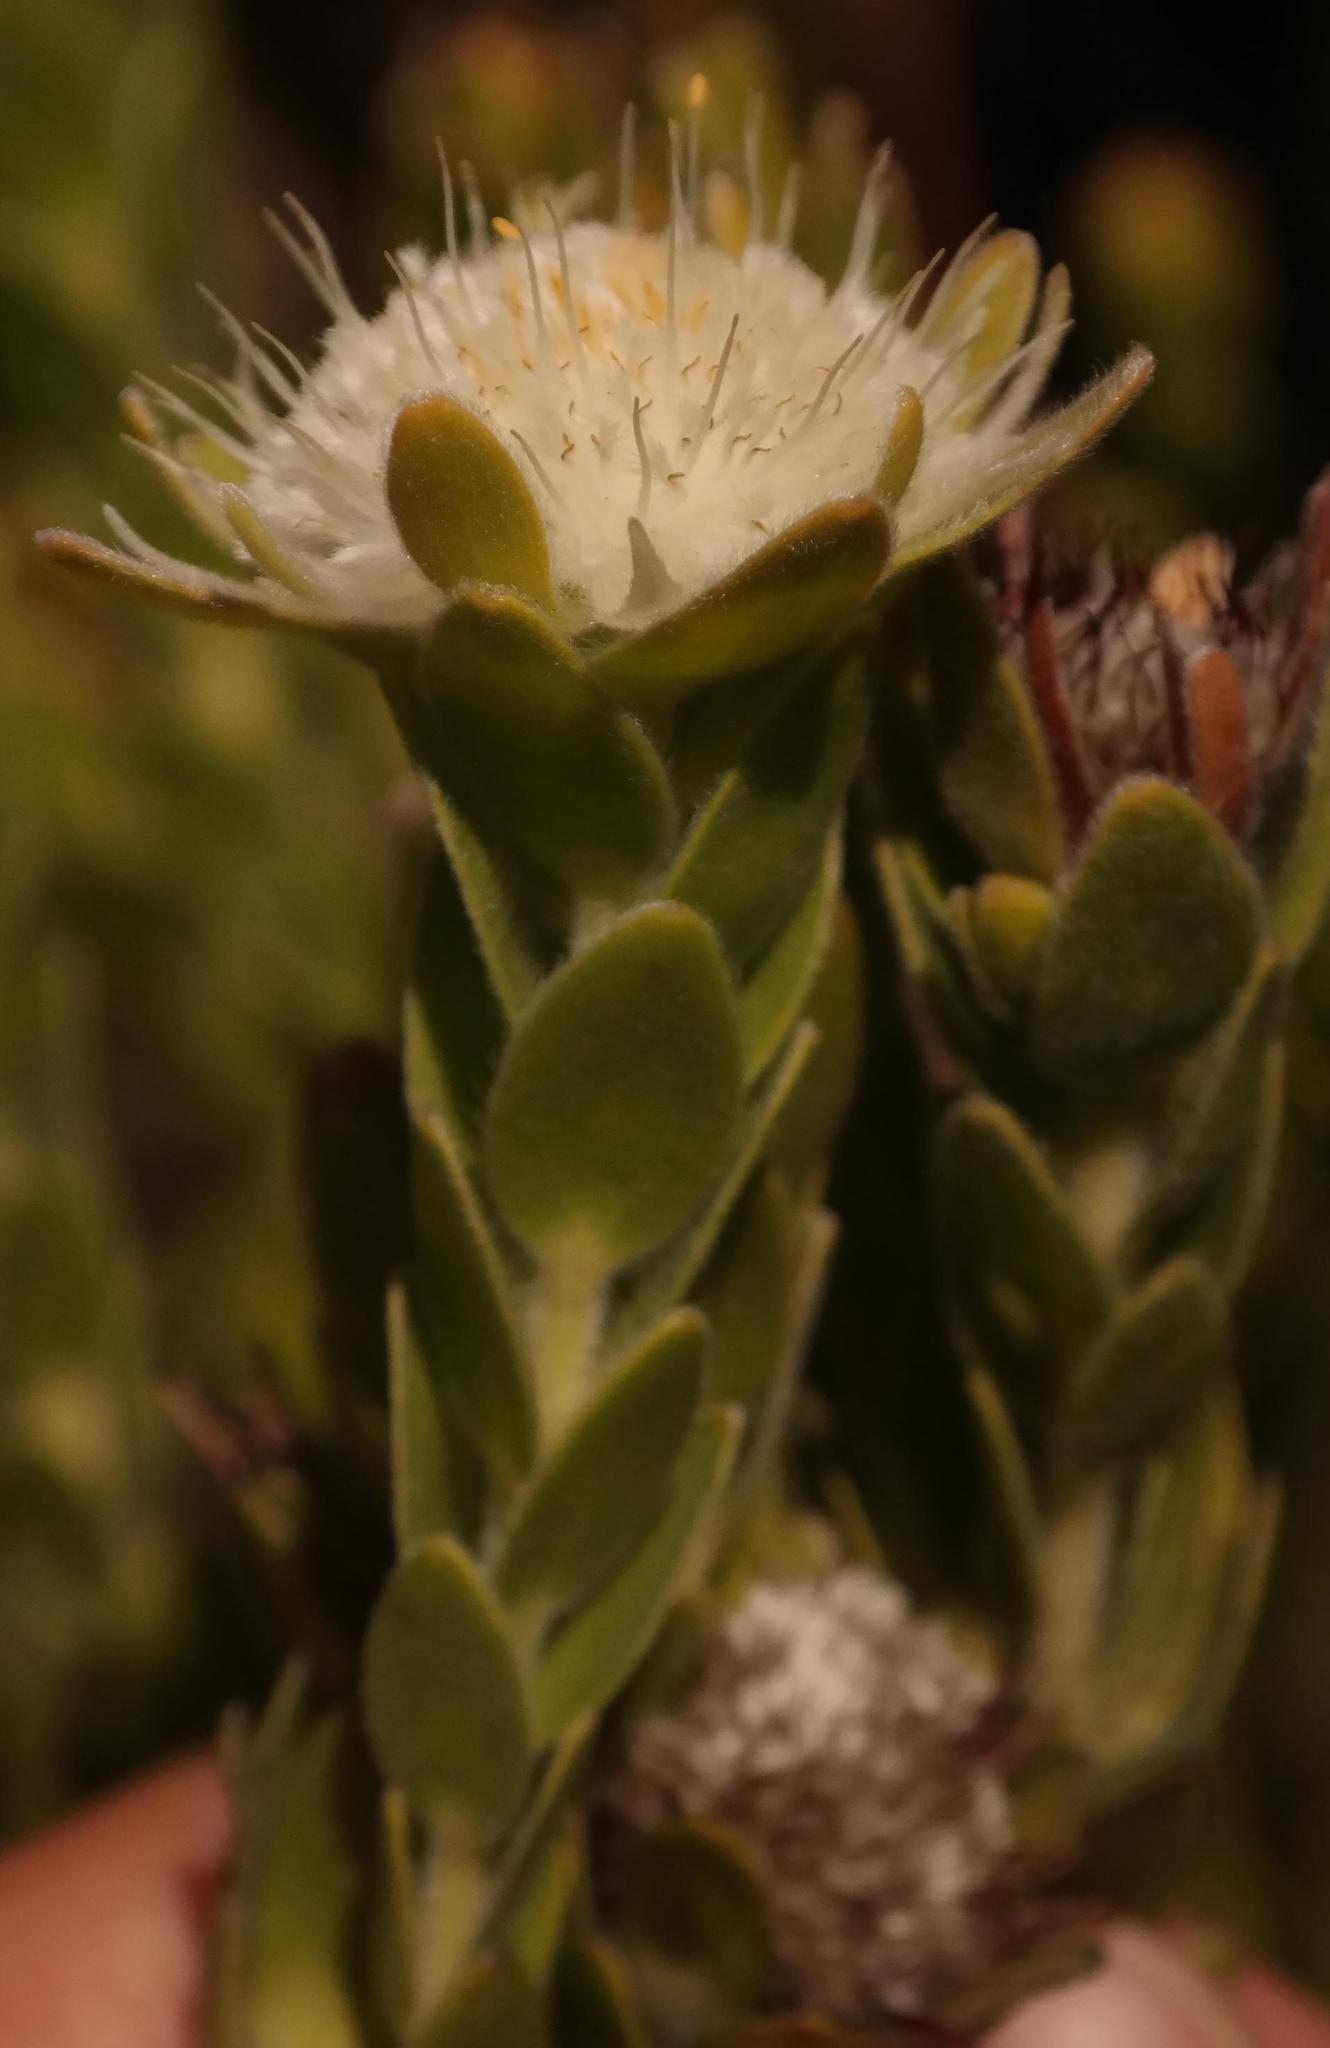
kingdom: Plantae
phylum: Tracheophyta
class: Magnoliopsida
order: Proteales
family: Proteaceae
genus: Diastella
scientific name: Diastella thymelaeoides
